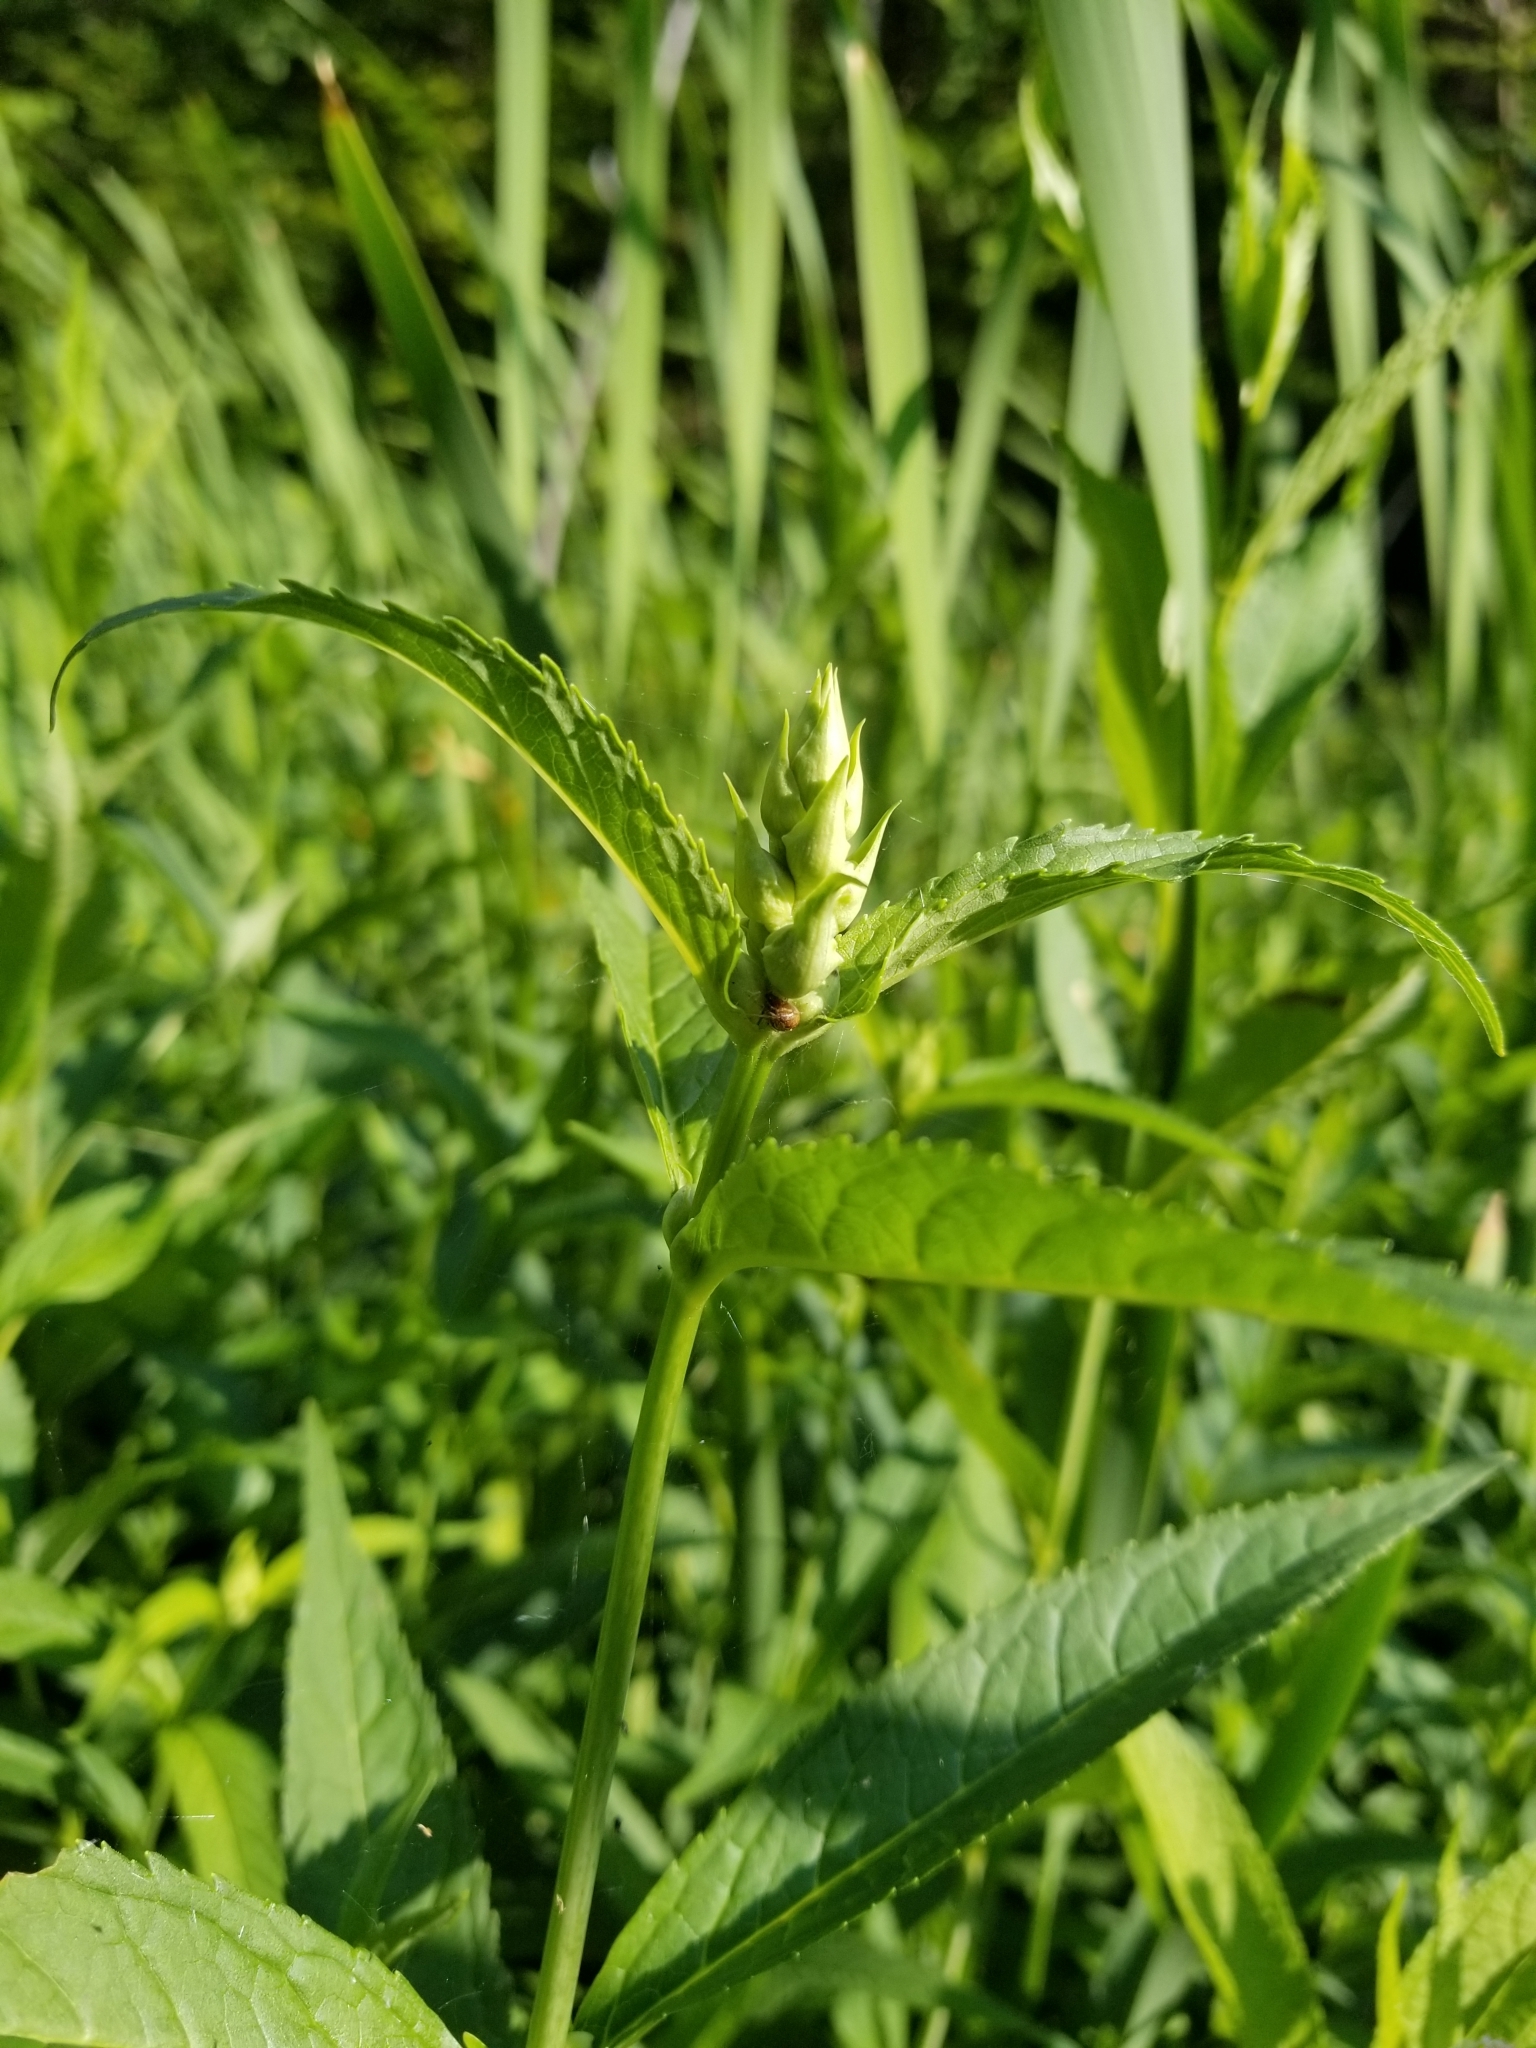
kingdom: Plantae
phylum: Tracheophyta
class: Magnoliopsida
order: Lamiales
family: Plantaginaceae
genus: Chelone
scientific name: Chelone glabra
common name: Snakehead
